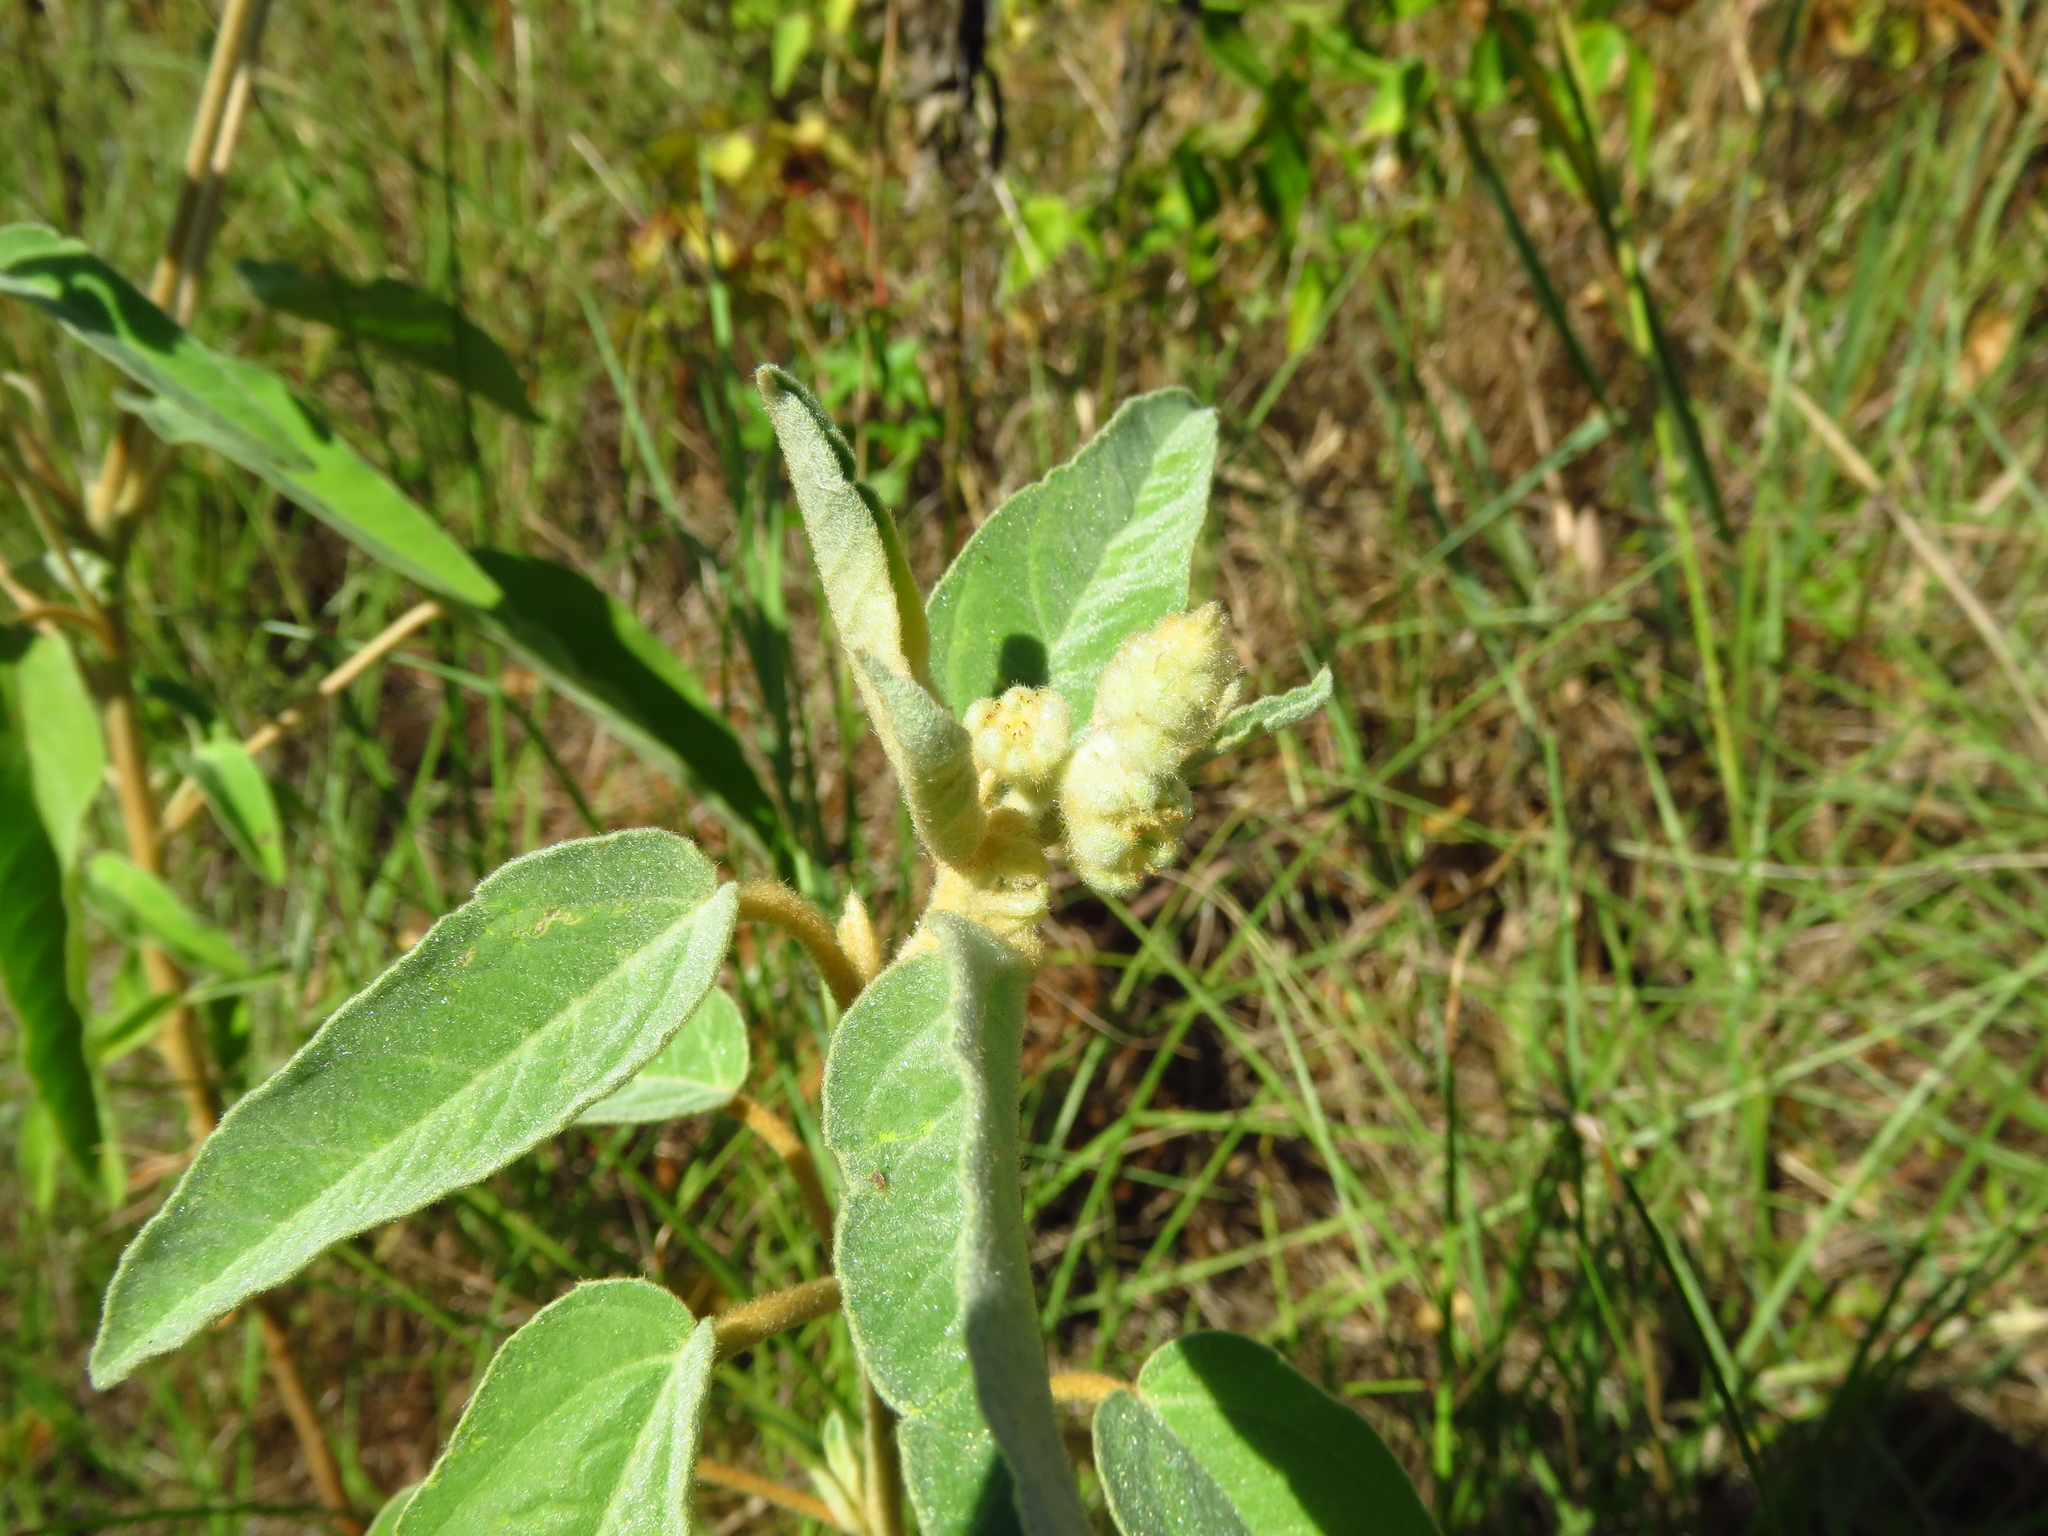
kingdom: Plantae
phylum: Tracheophyta
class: Magnoliopsida
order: Malpighiales
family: Euphorbiaceae
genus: Croton
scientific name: Croton lindheimeri
